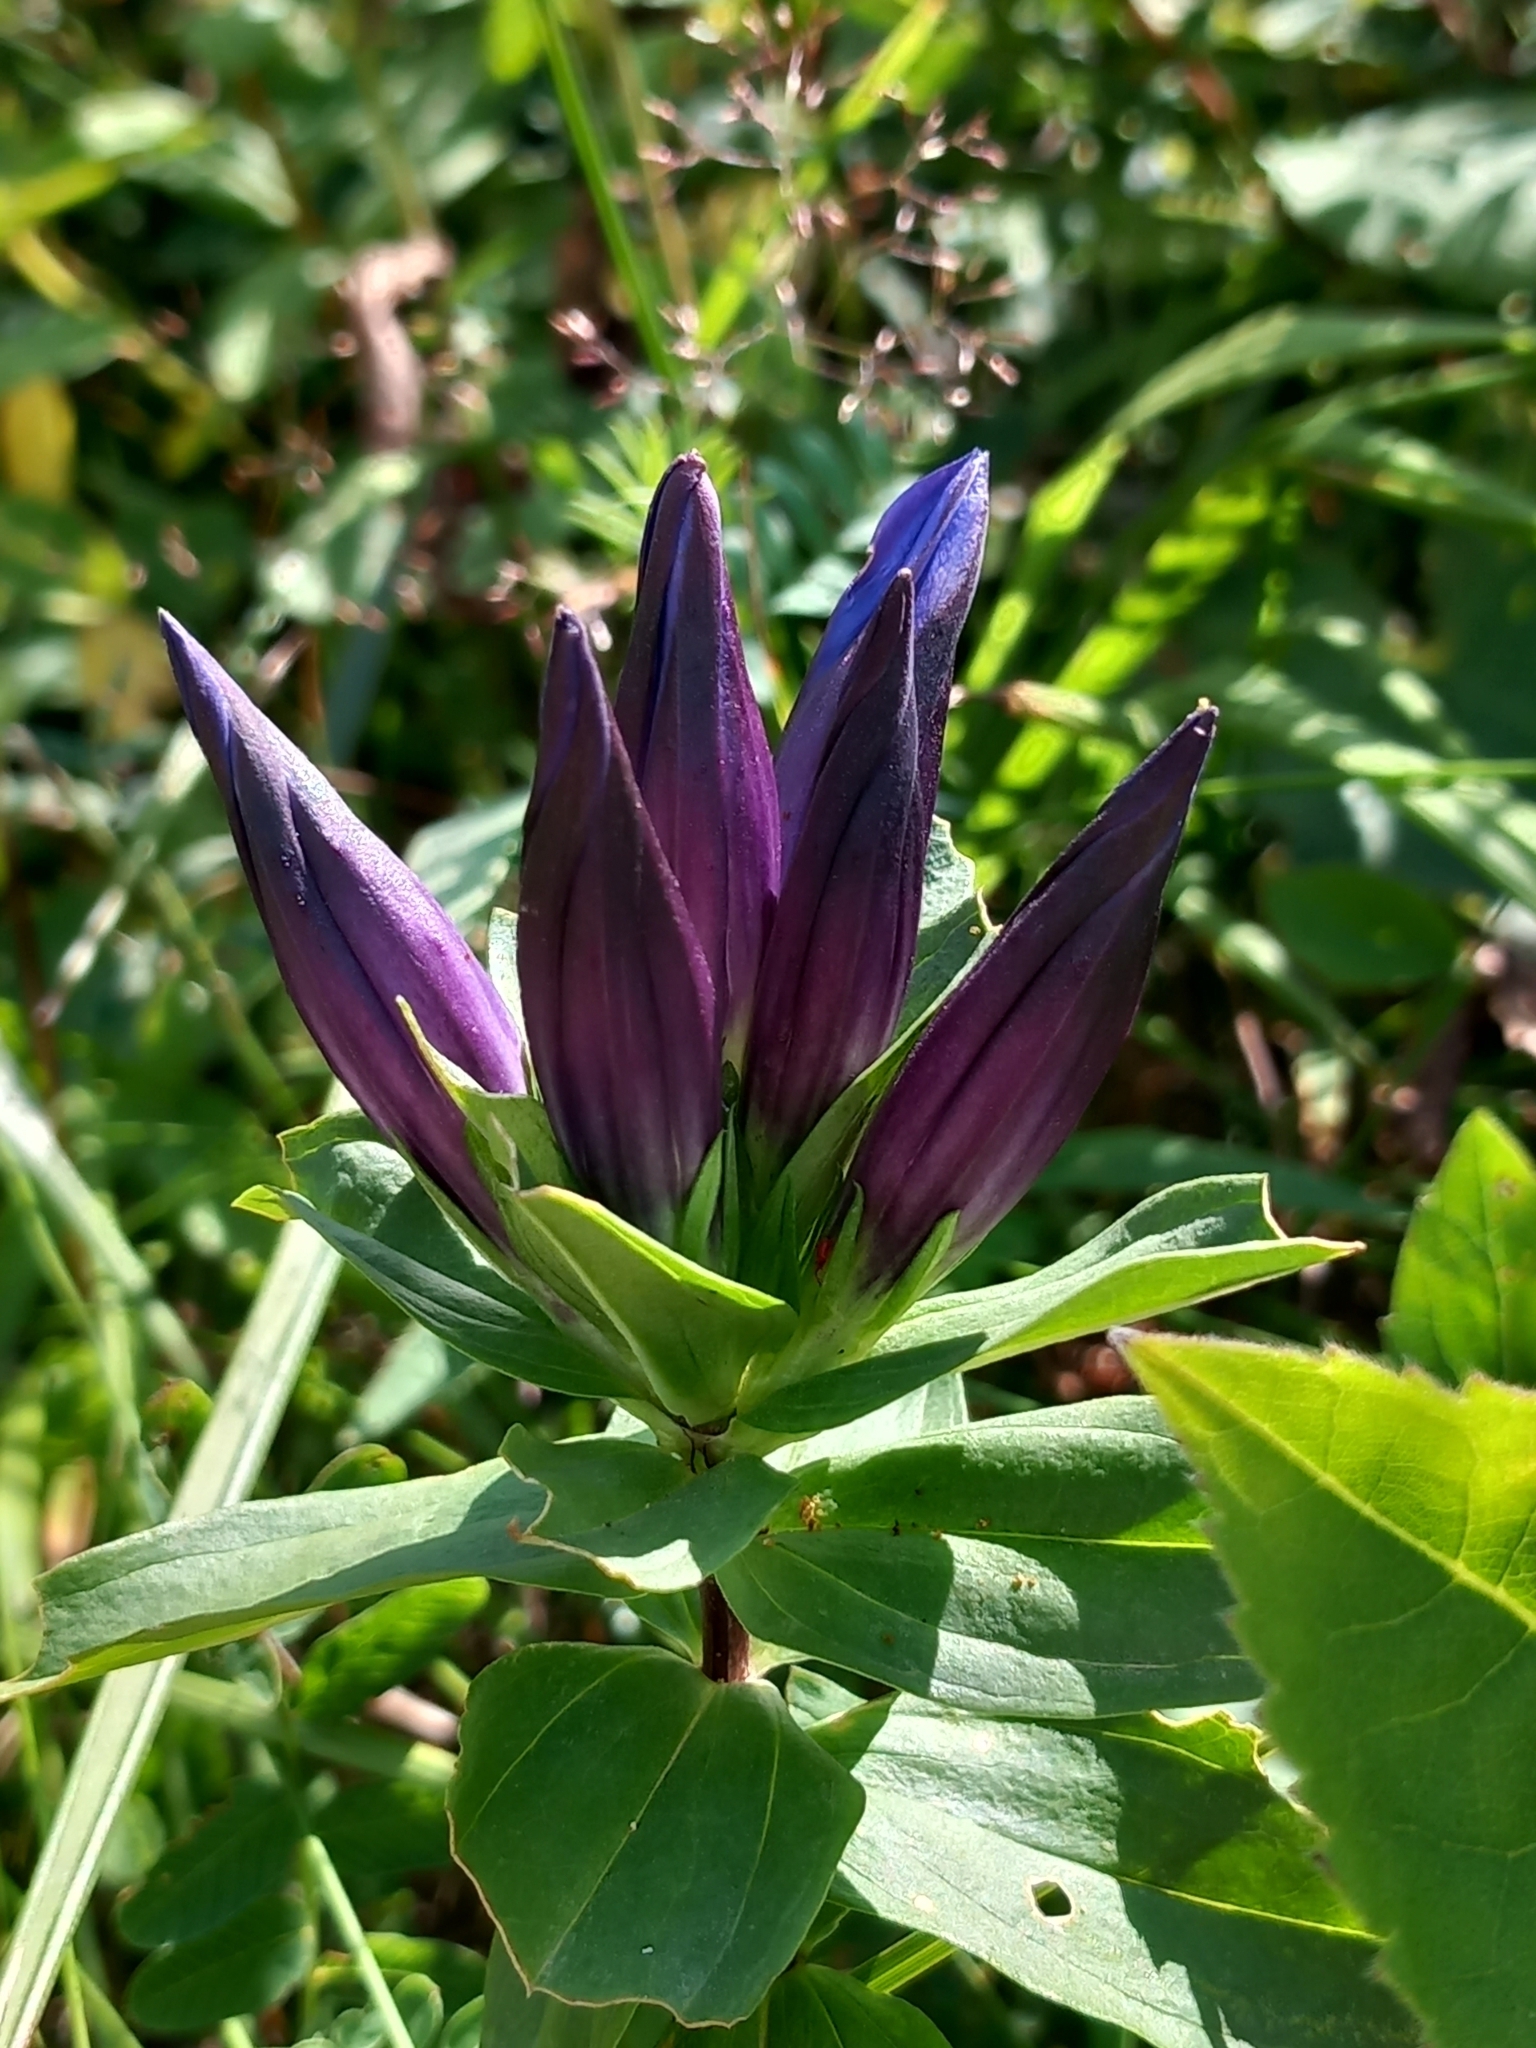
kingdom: Plantae
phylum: Tracheophyta
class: Magnoliopsida
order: Gentianales
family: Gentianaceae
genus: Gentiana
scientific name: Gentiana septemfida
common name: Crested gentian
